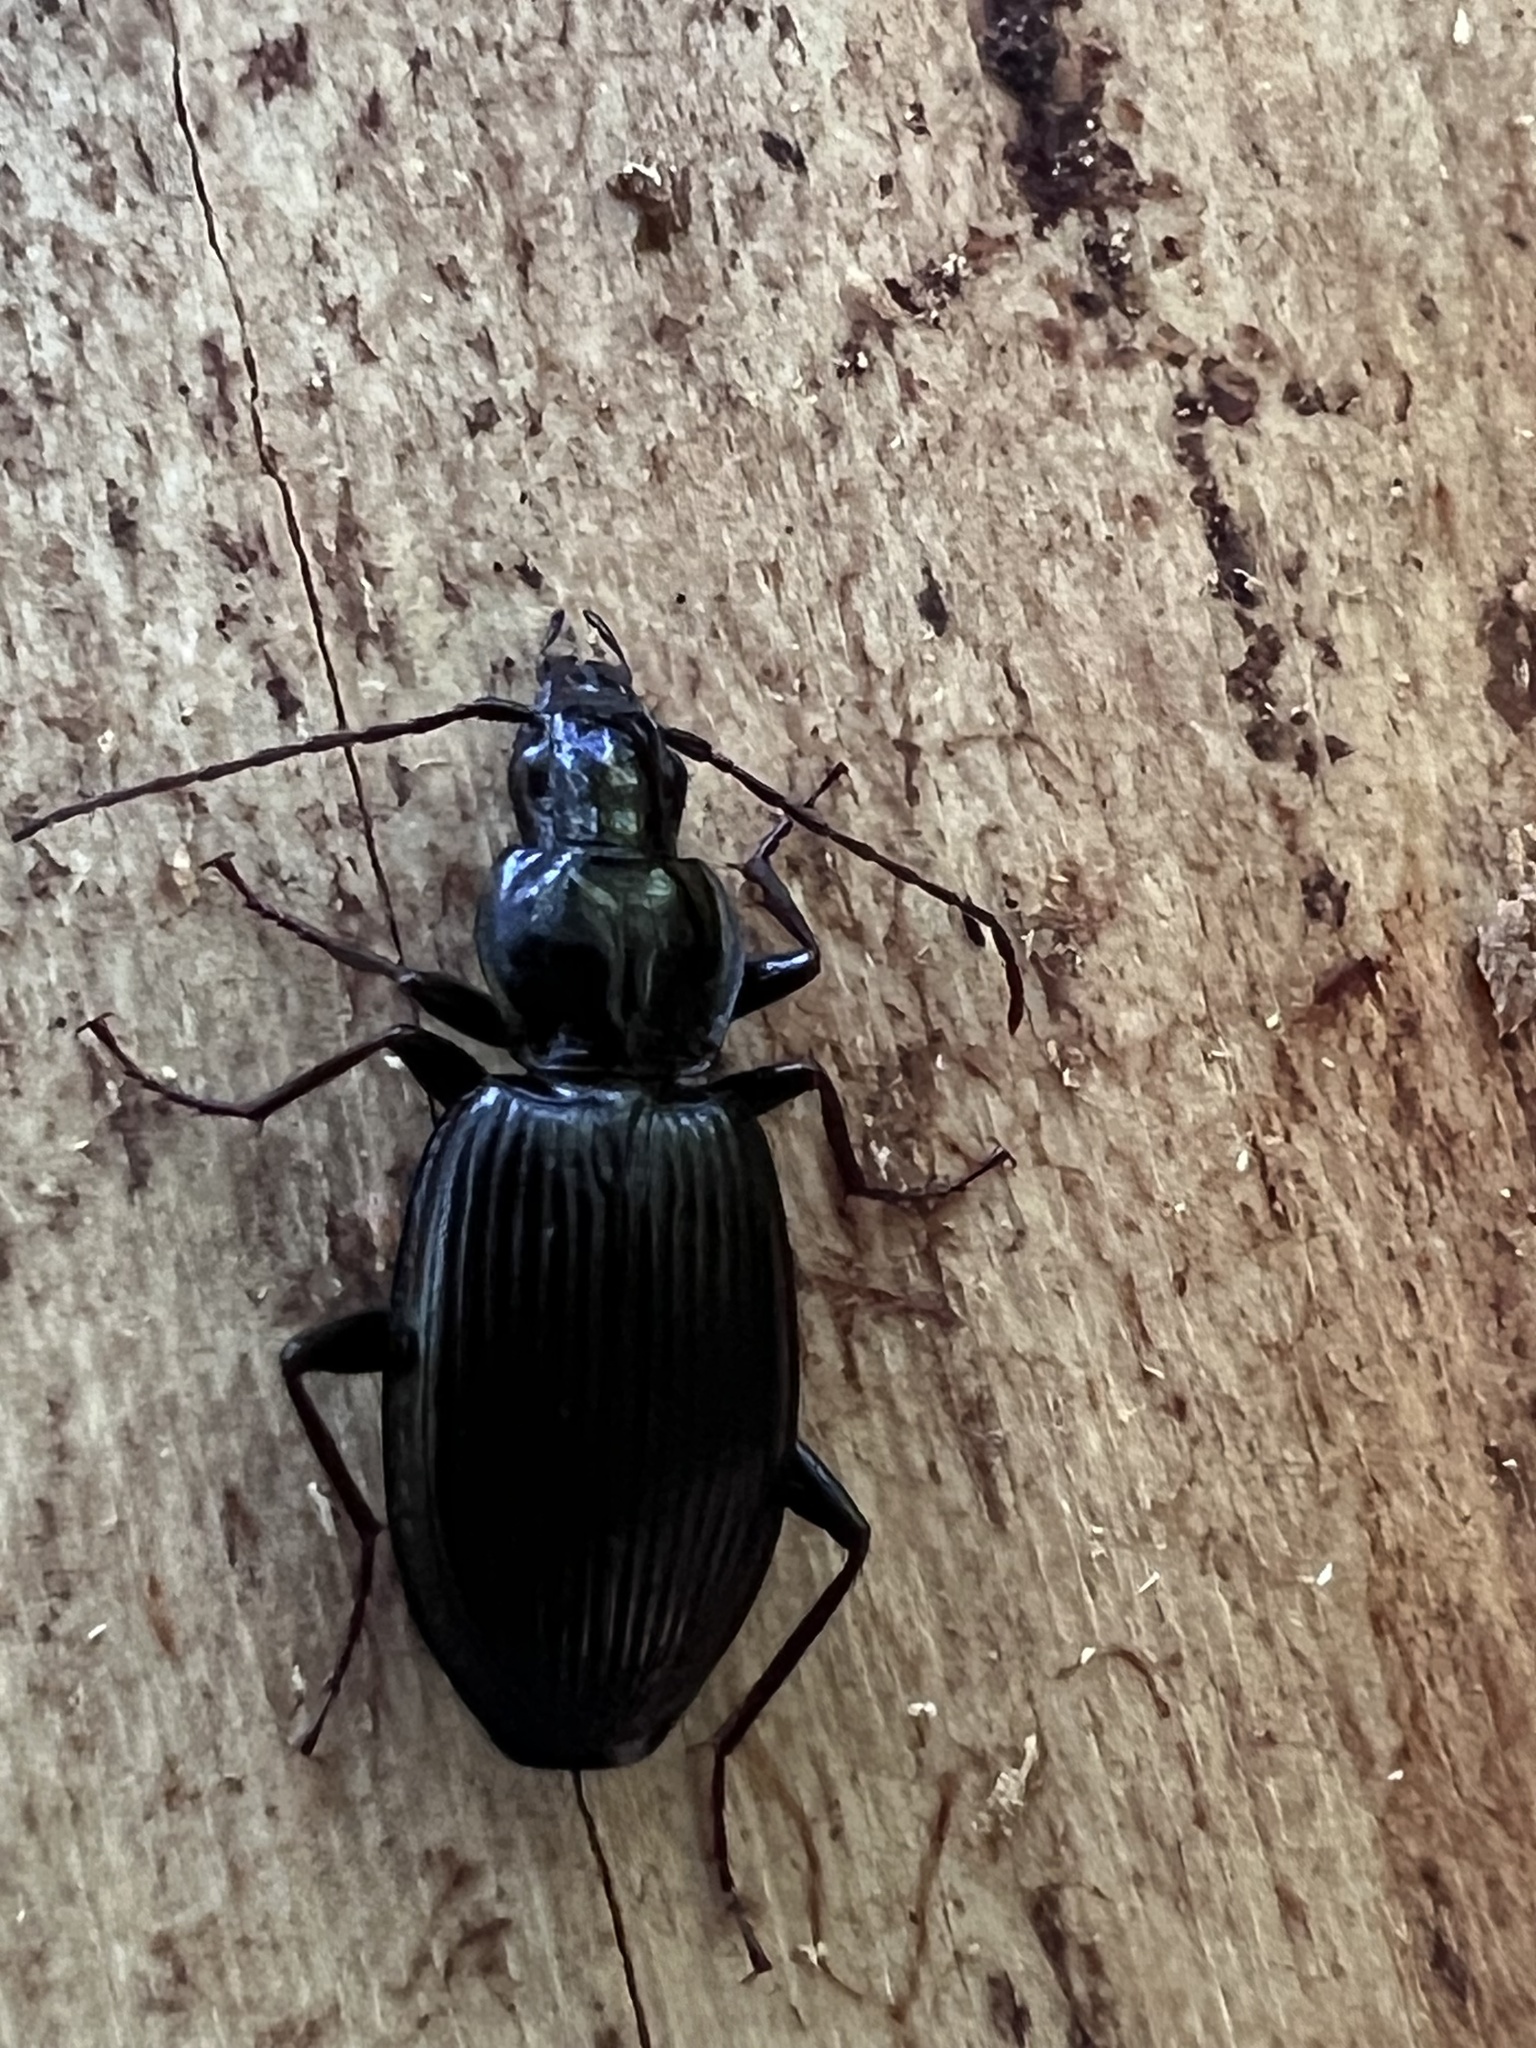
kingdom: Animalia
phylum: Arthropoda
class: Insecta
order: Coleoptera
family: Carabidae
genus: Platynus
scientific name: Platynus decentis
